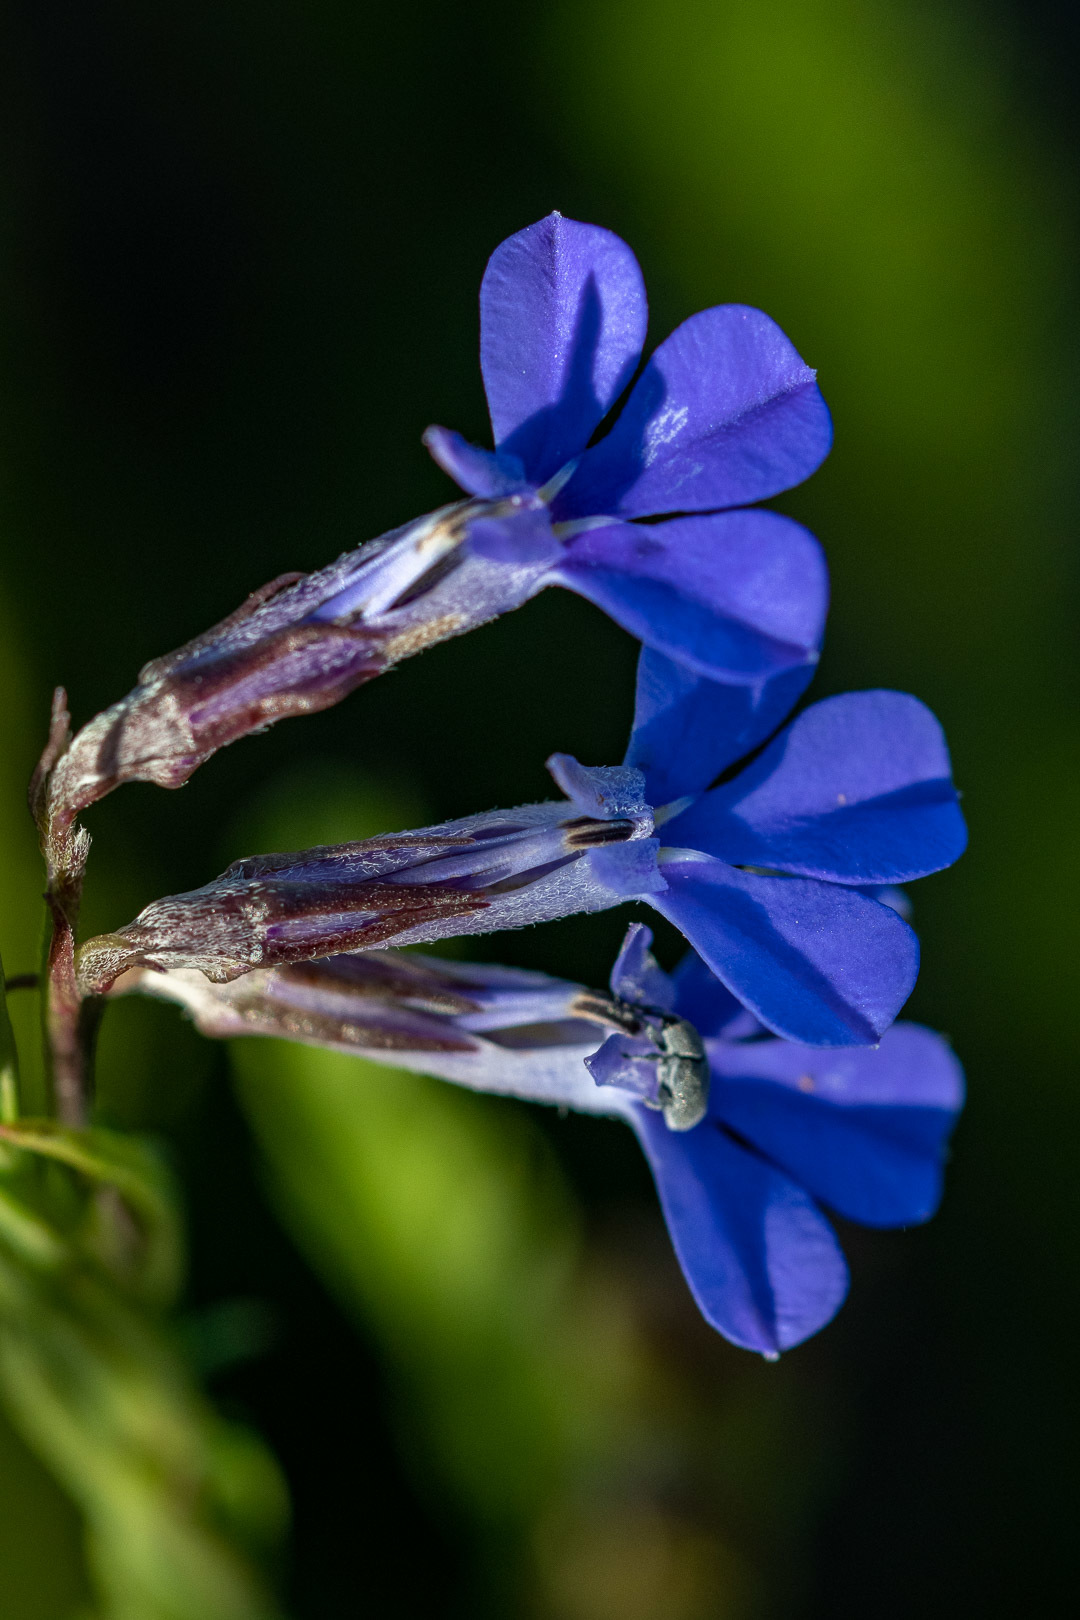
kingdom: Plantae
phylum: Tracheophyta
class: Magnoliopsida
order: Asterales
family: Campanulaceae
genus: Lobelia
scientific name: Lobelia pinifolia
